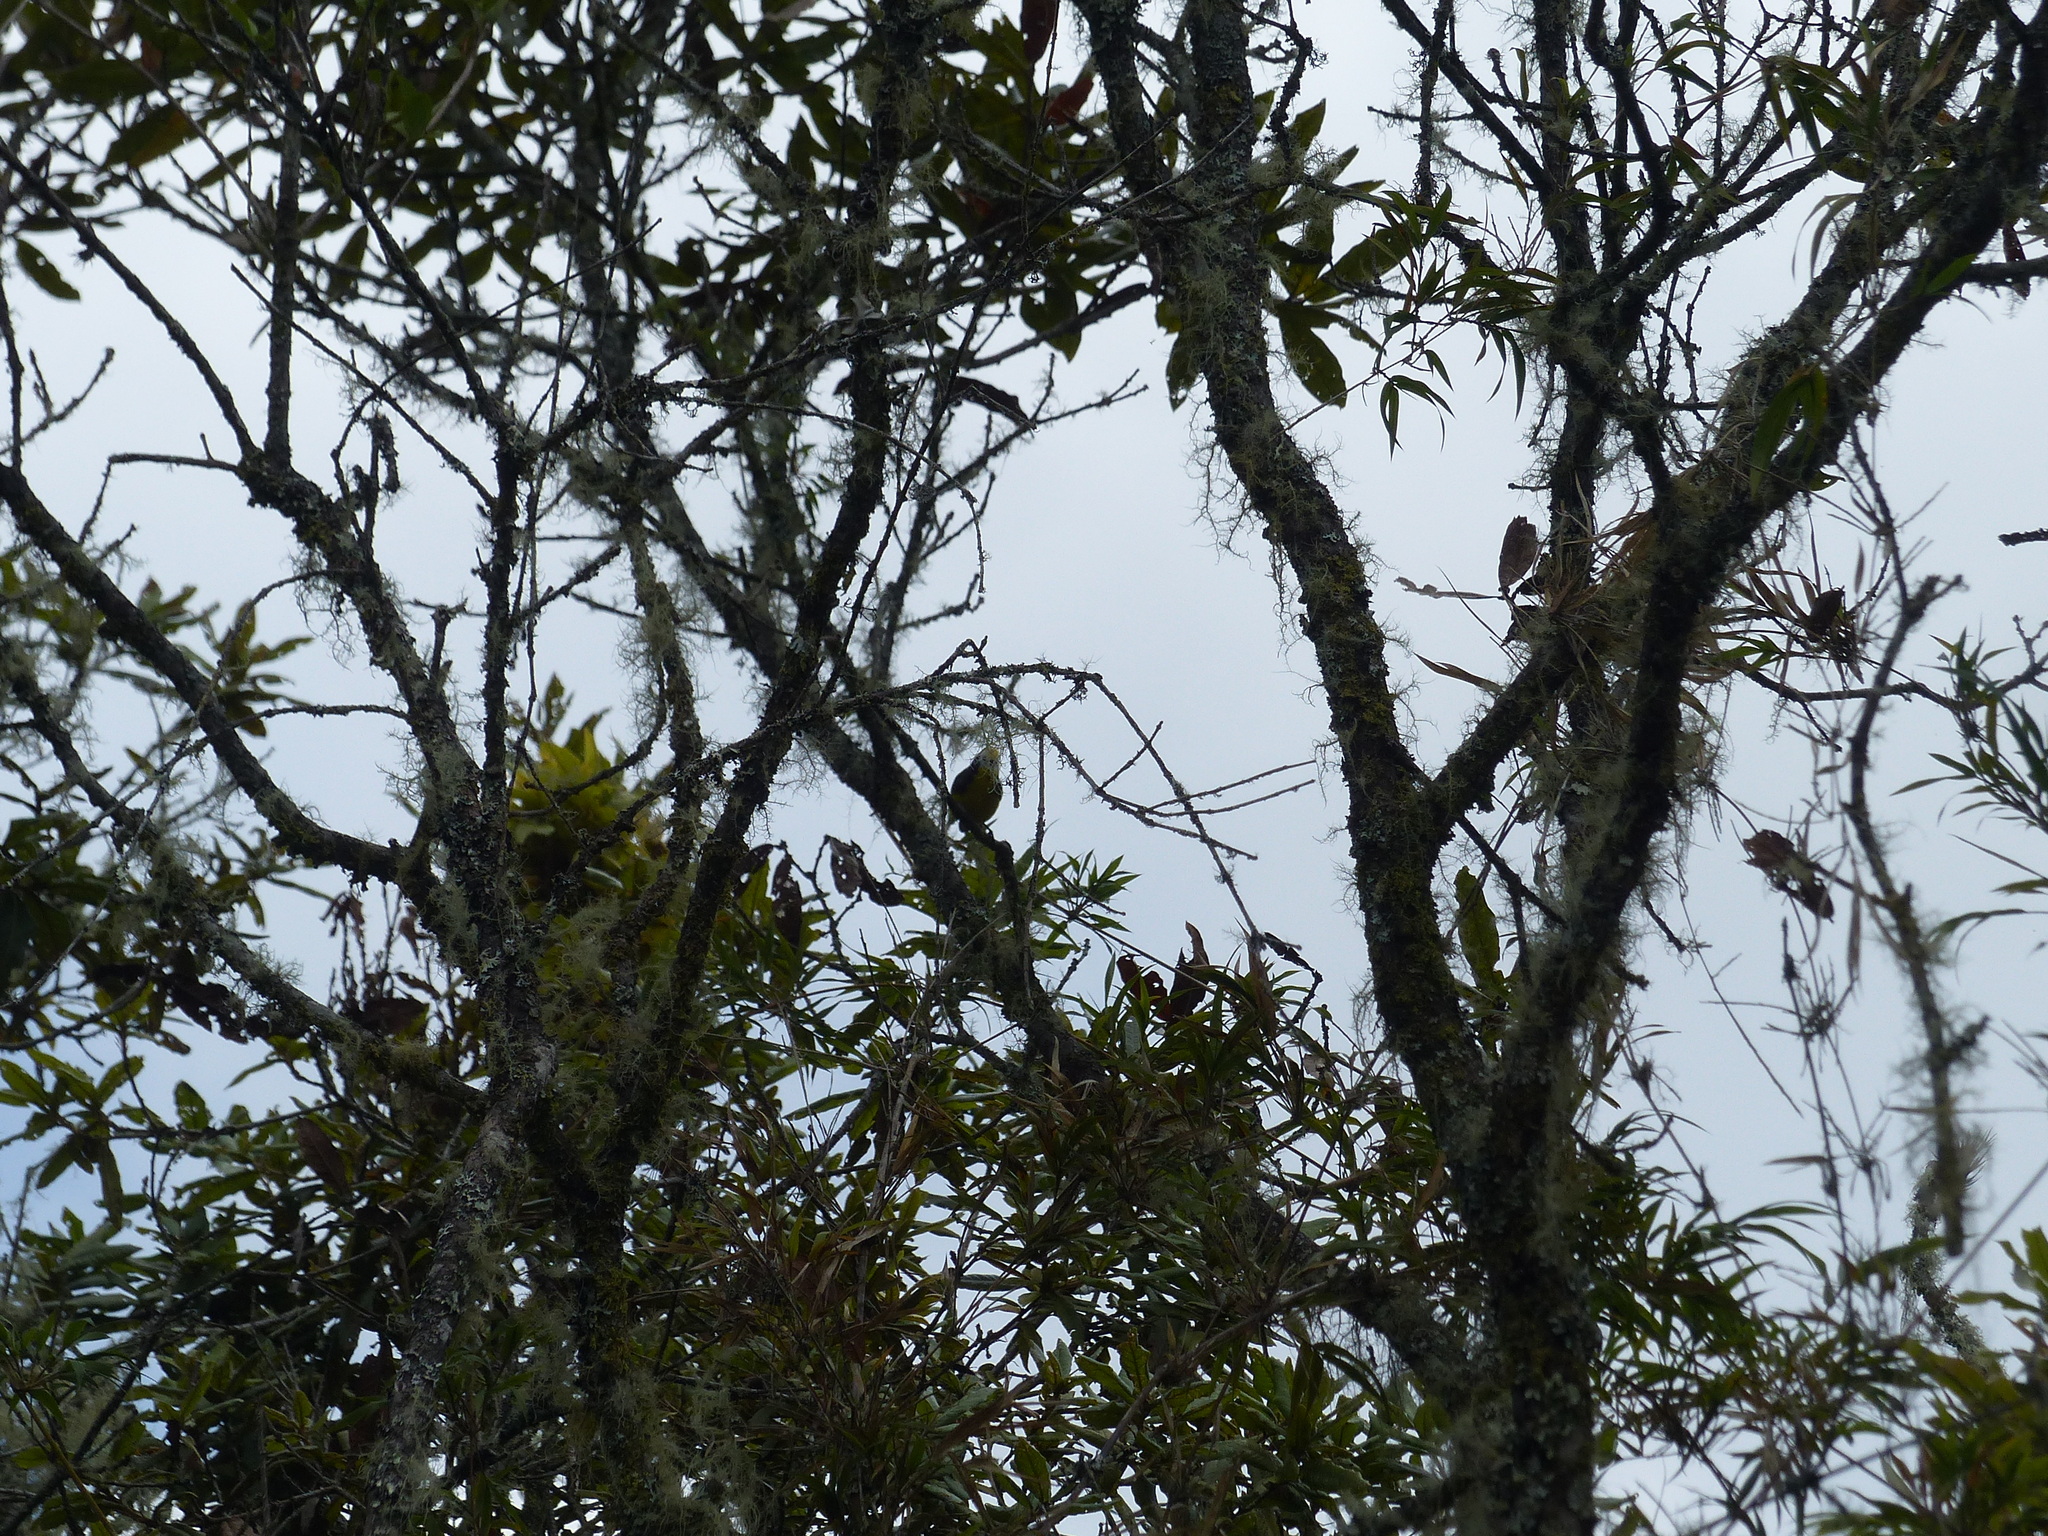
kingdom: Animalia
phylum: Chordata
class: Aves
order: Passeriformes
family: Parulidae
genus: Myioborus
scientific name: Myioborus ornatus
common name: Golden-fronted whitestart
